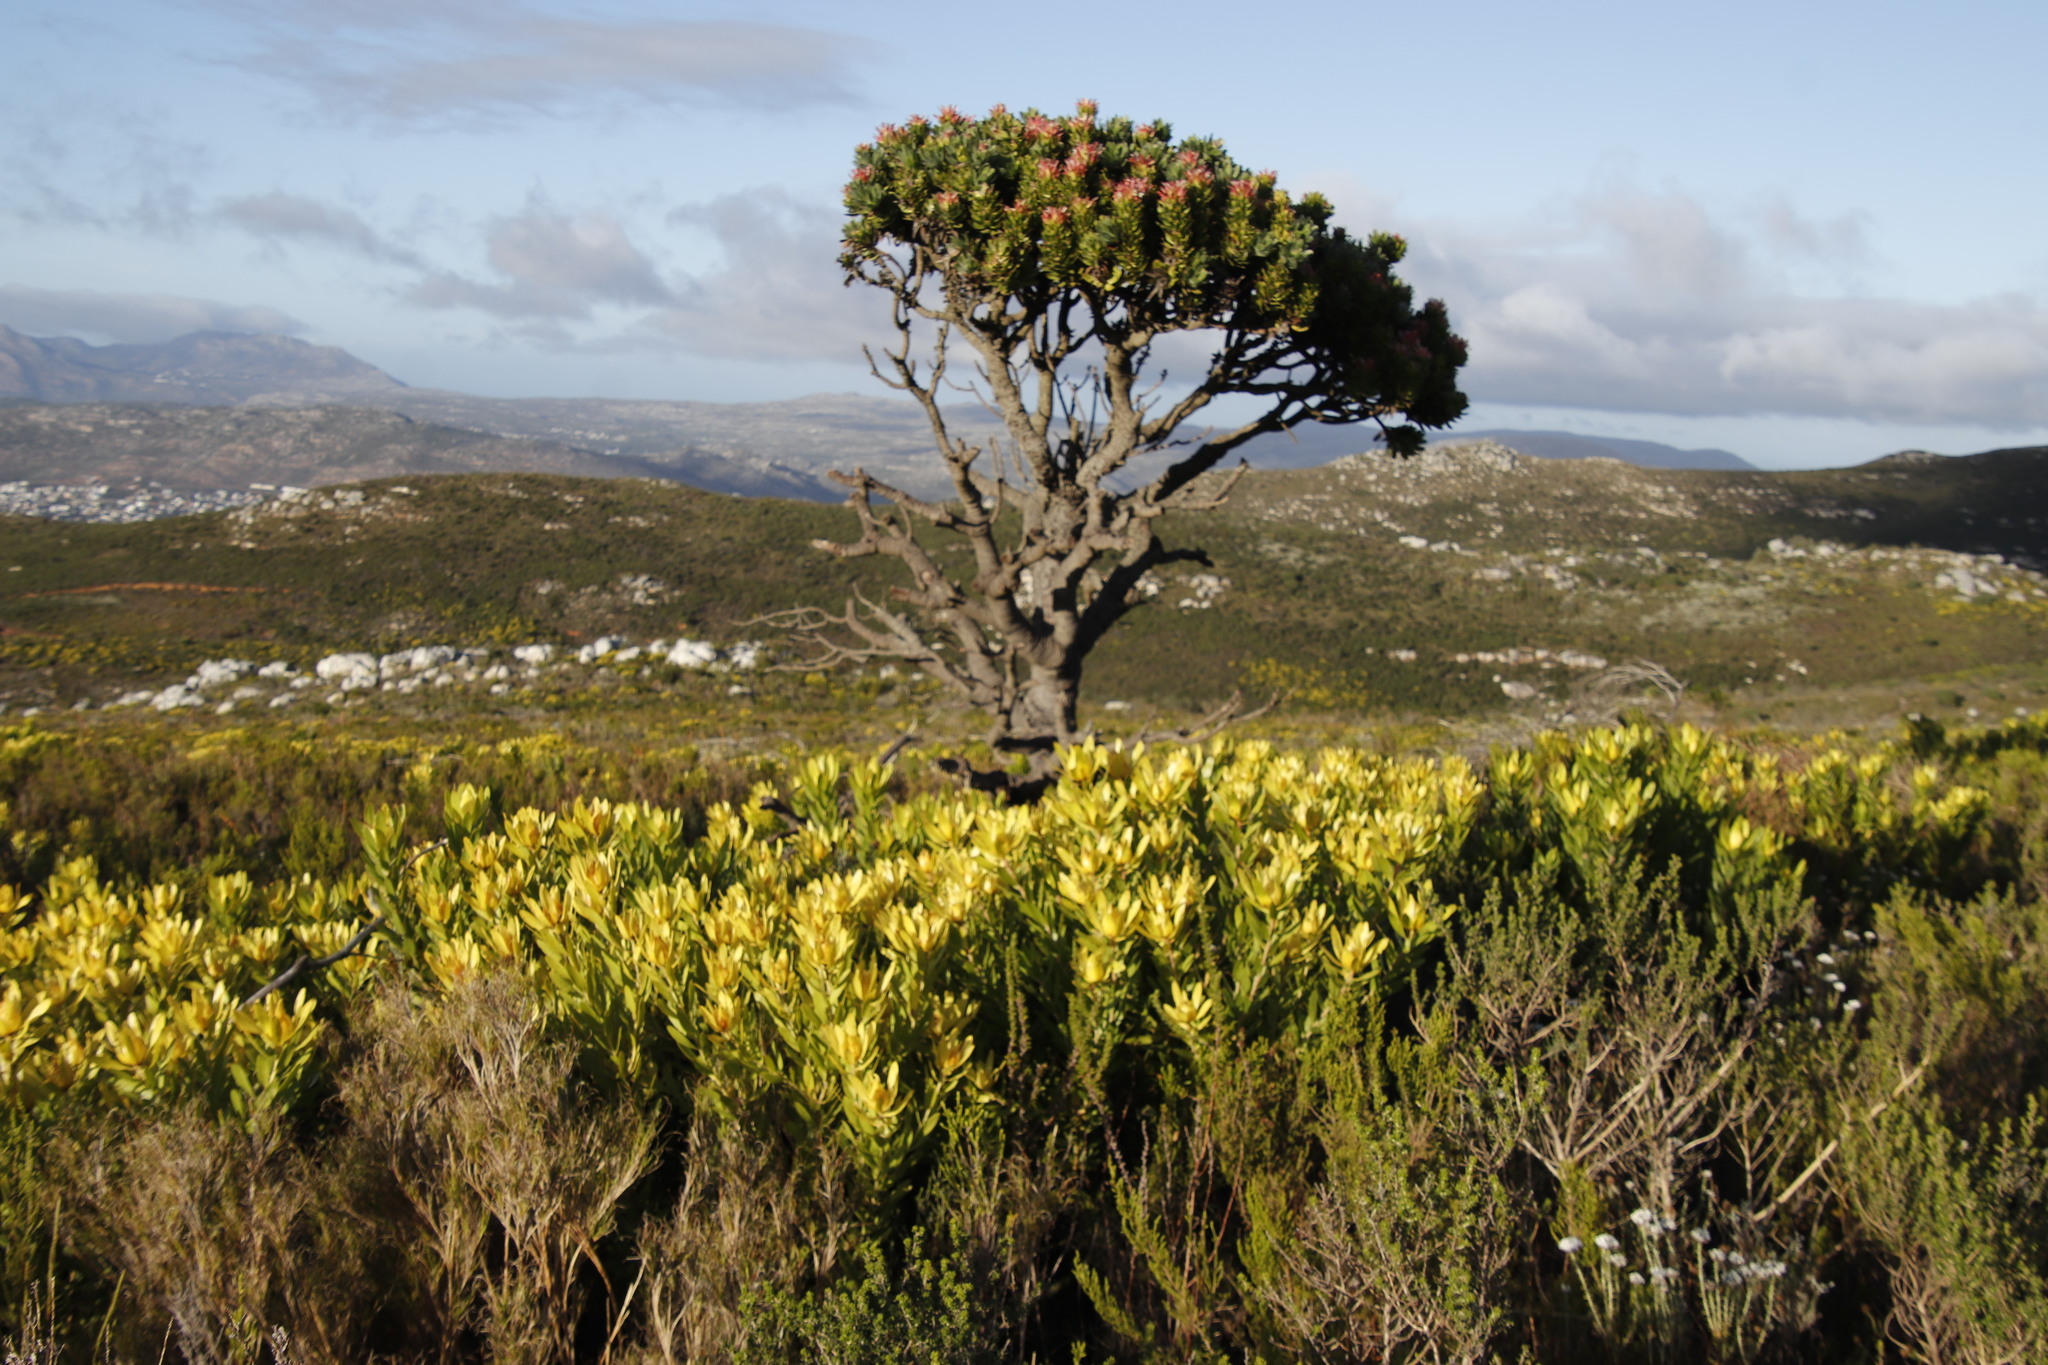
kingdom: Plantae
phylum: Tracheophyta
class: Magnoliopsida
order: Proteales
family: Proteaceae
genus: Mimetes
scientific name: Mimetes fimbriifolius
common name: Fringed bottlebrush
